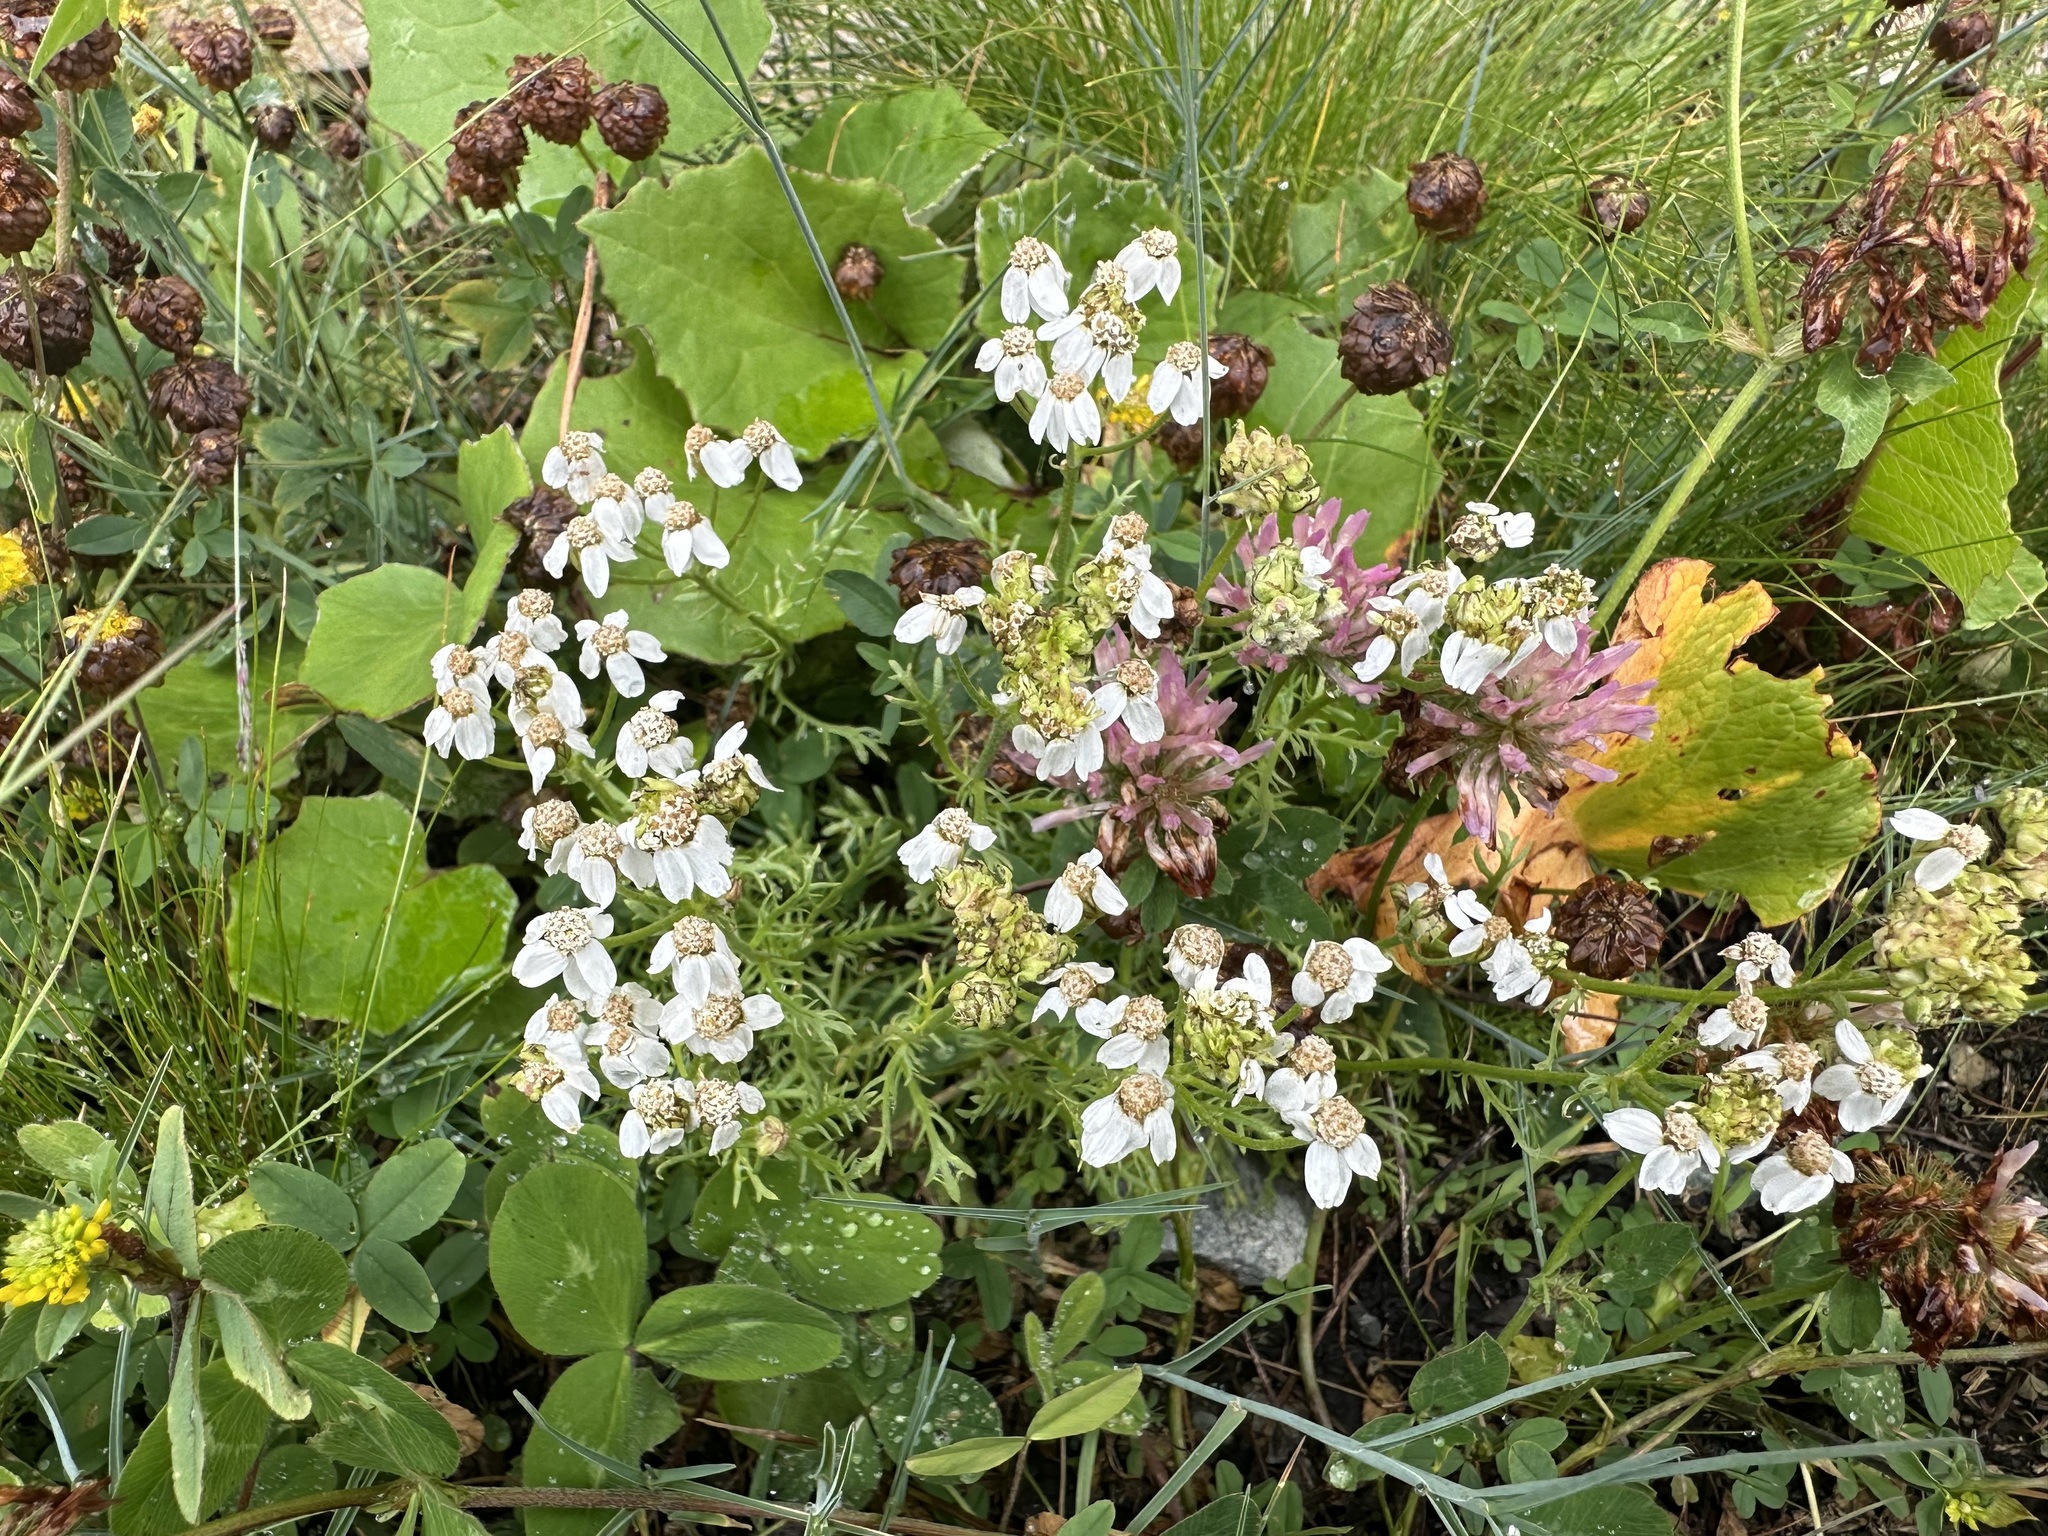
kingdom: Plantae
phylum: Tracheophyta
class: Magnoliopsida
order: Asterales
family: Asteraceae
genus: Achillea
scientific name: Achillea erba-rotta
